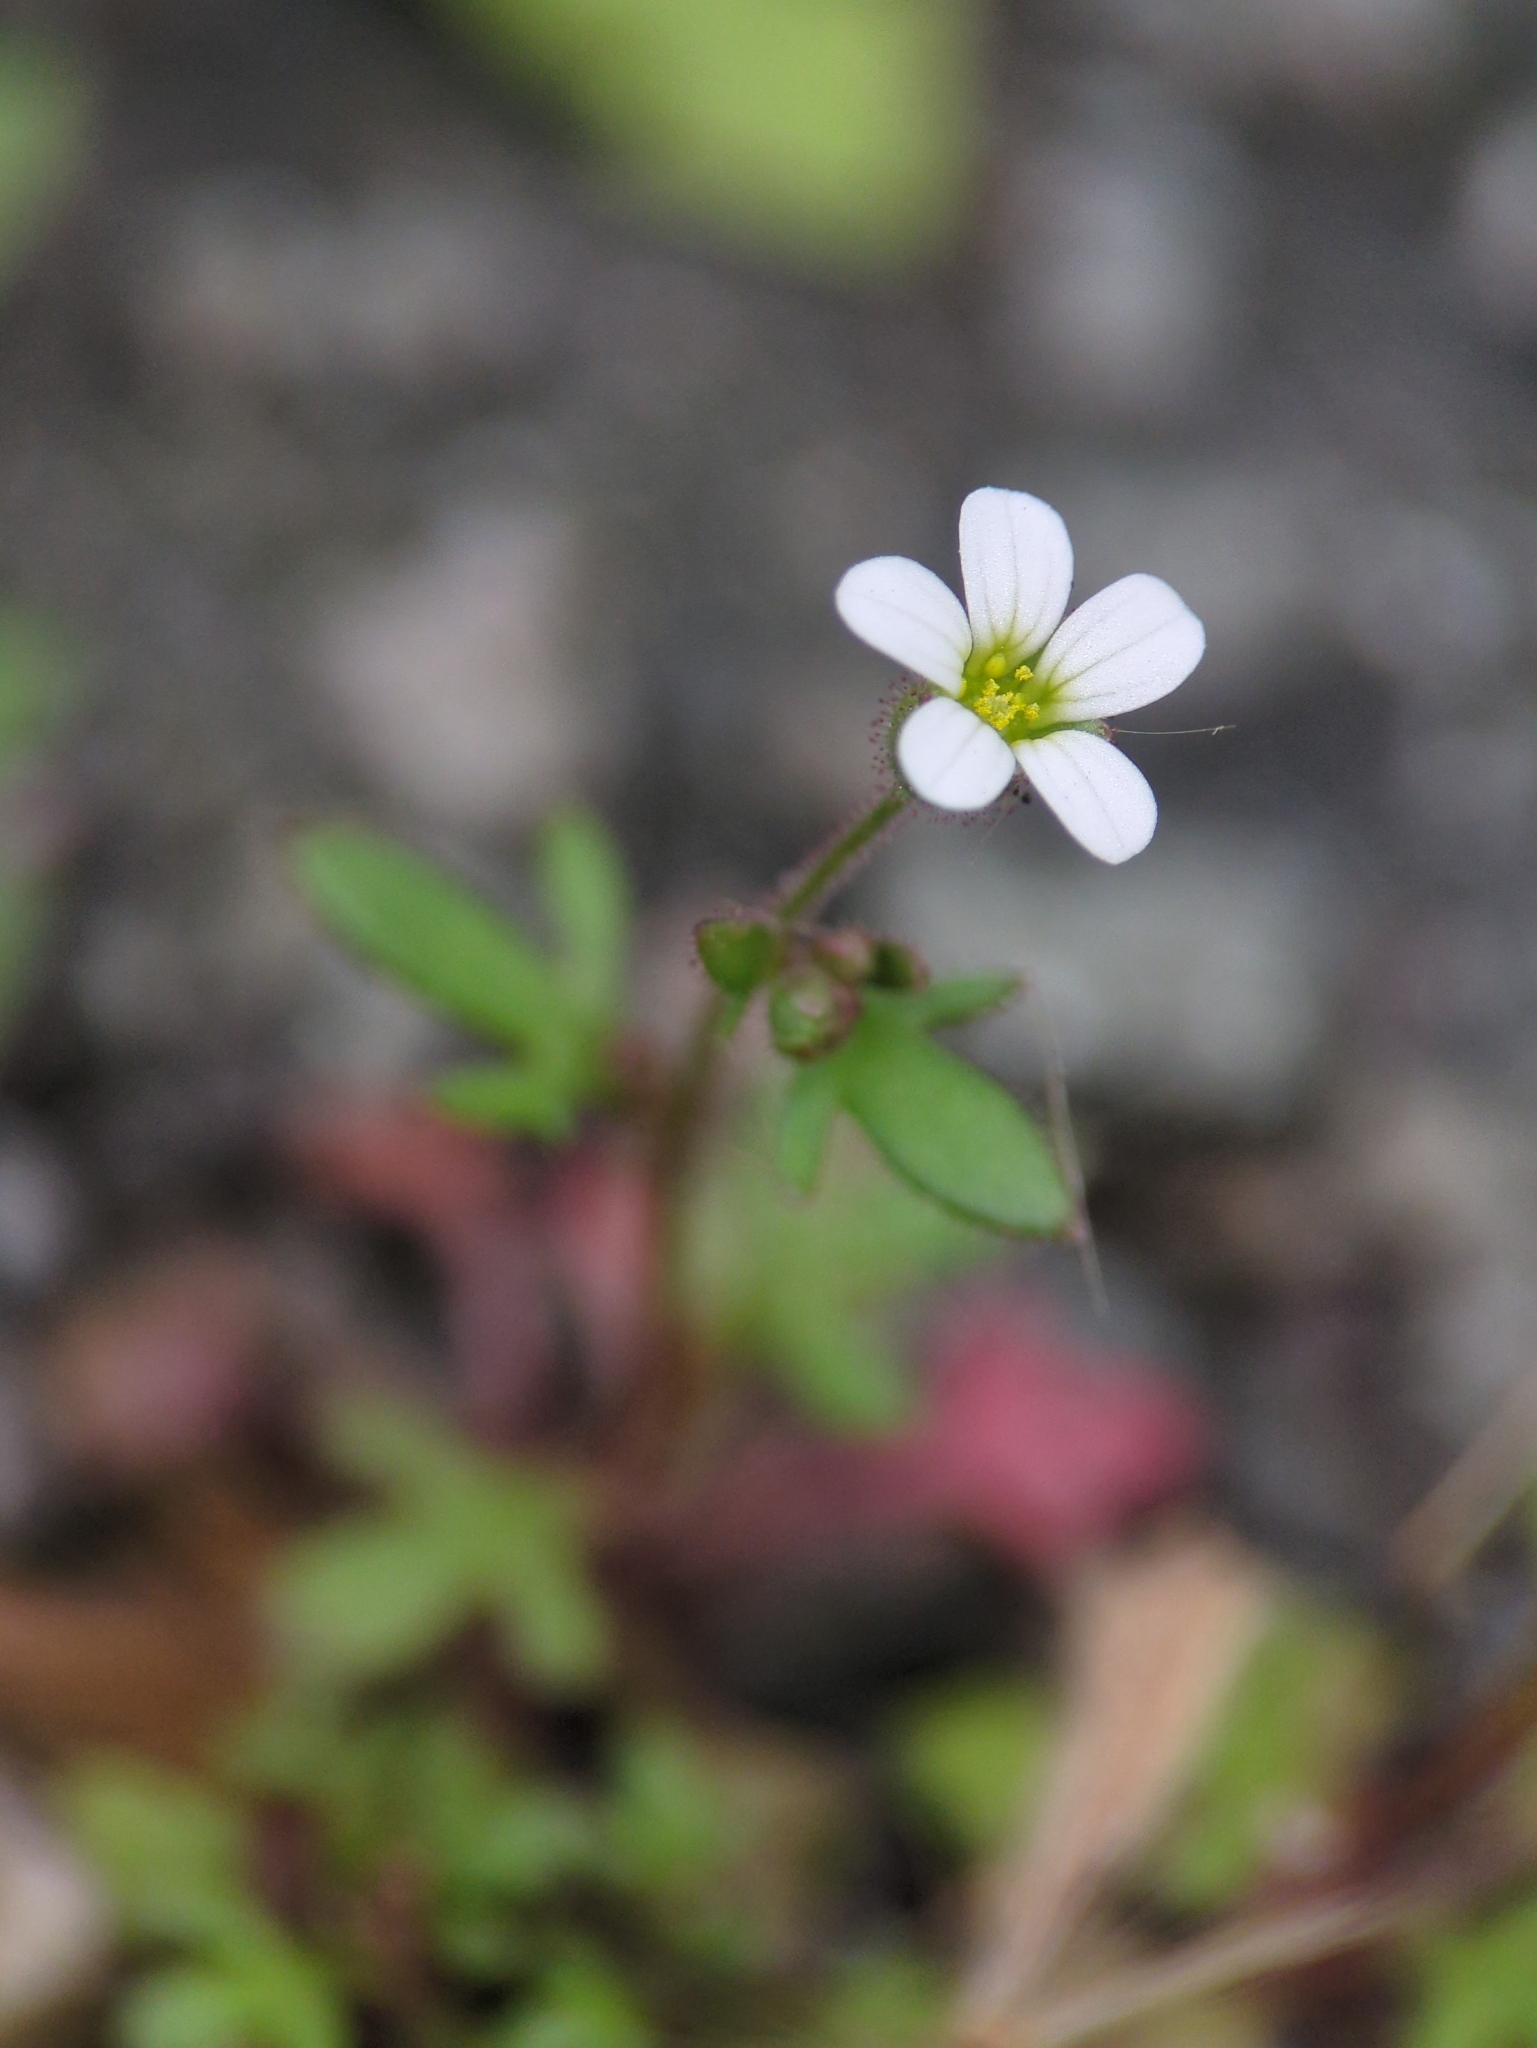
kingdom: Plantae
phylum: Tracheophyta
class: Magnoliopsida
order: Saxifragales
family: Saxifragaceae
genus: Saxifraga
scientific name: Saxifraga tridactylites
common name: Rue-leaved saxifrage
